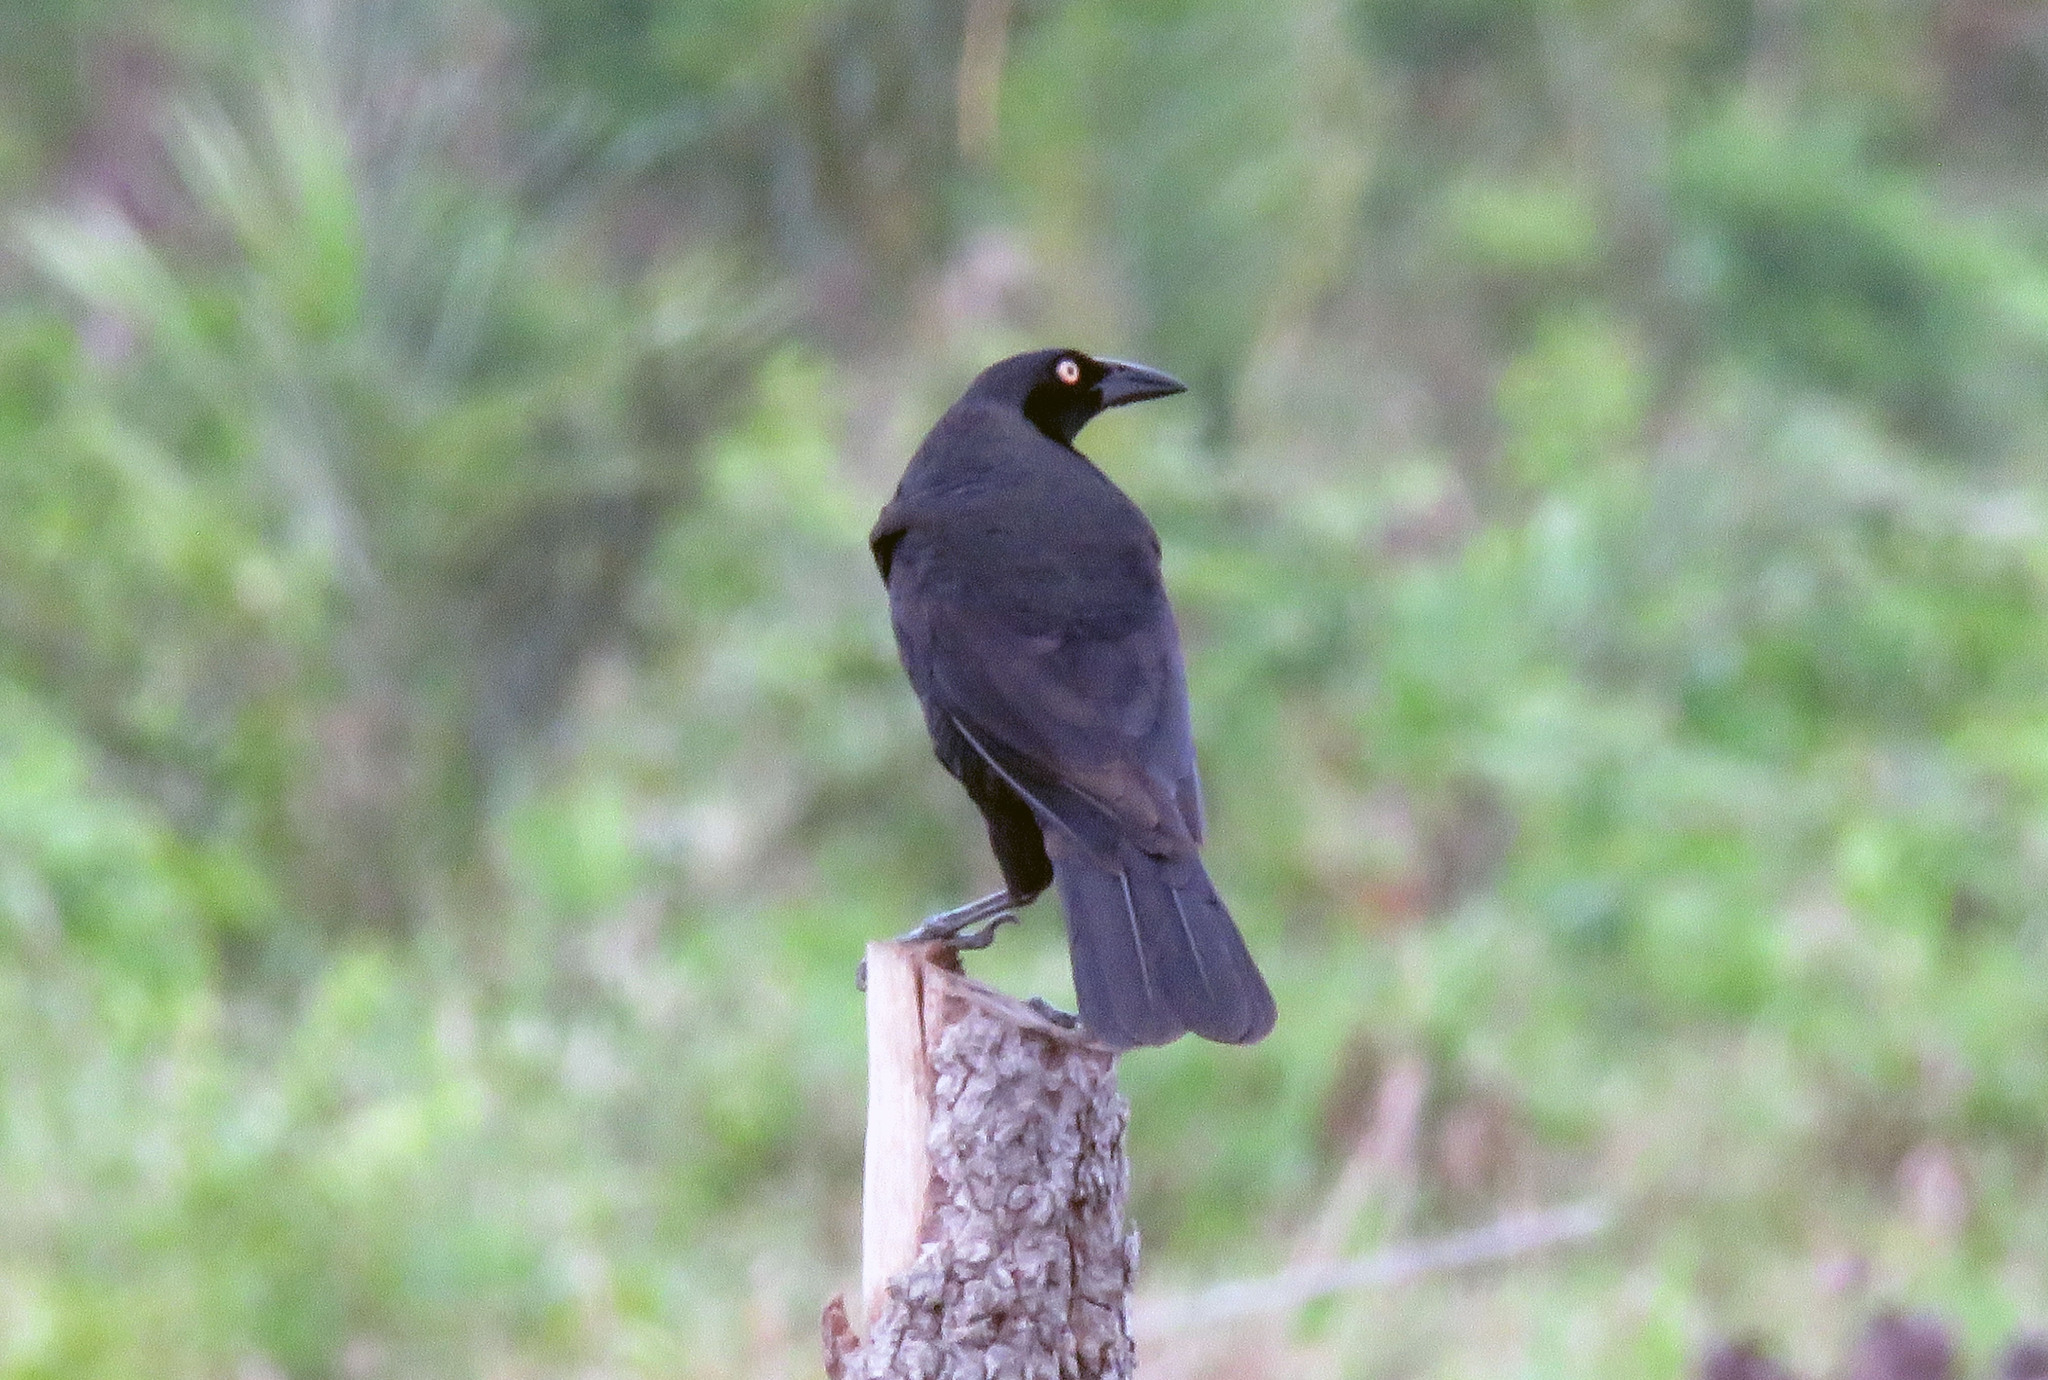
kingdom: Animalia
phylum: Chordata
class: Aves
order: Passeriformes
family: Icteridae
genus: Molothrus
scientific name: Molothrus oryzivorus
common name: Giant cowbird
